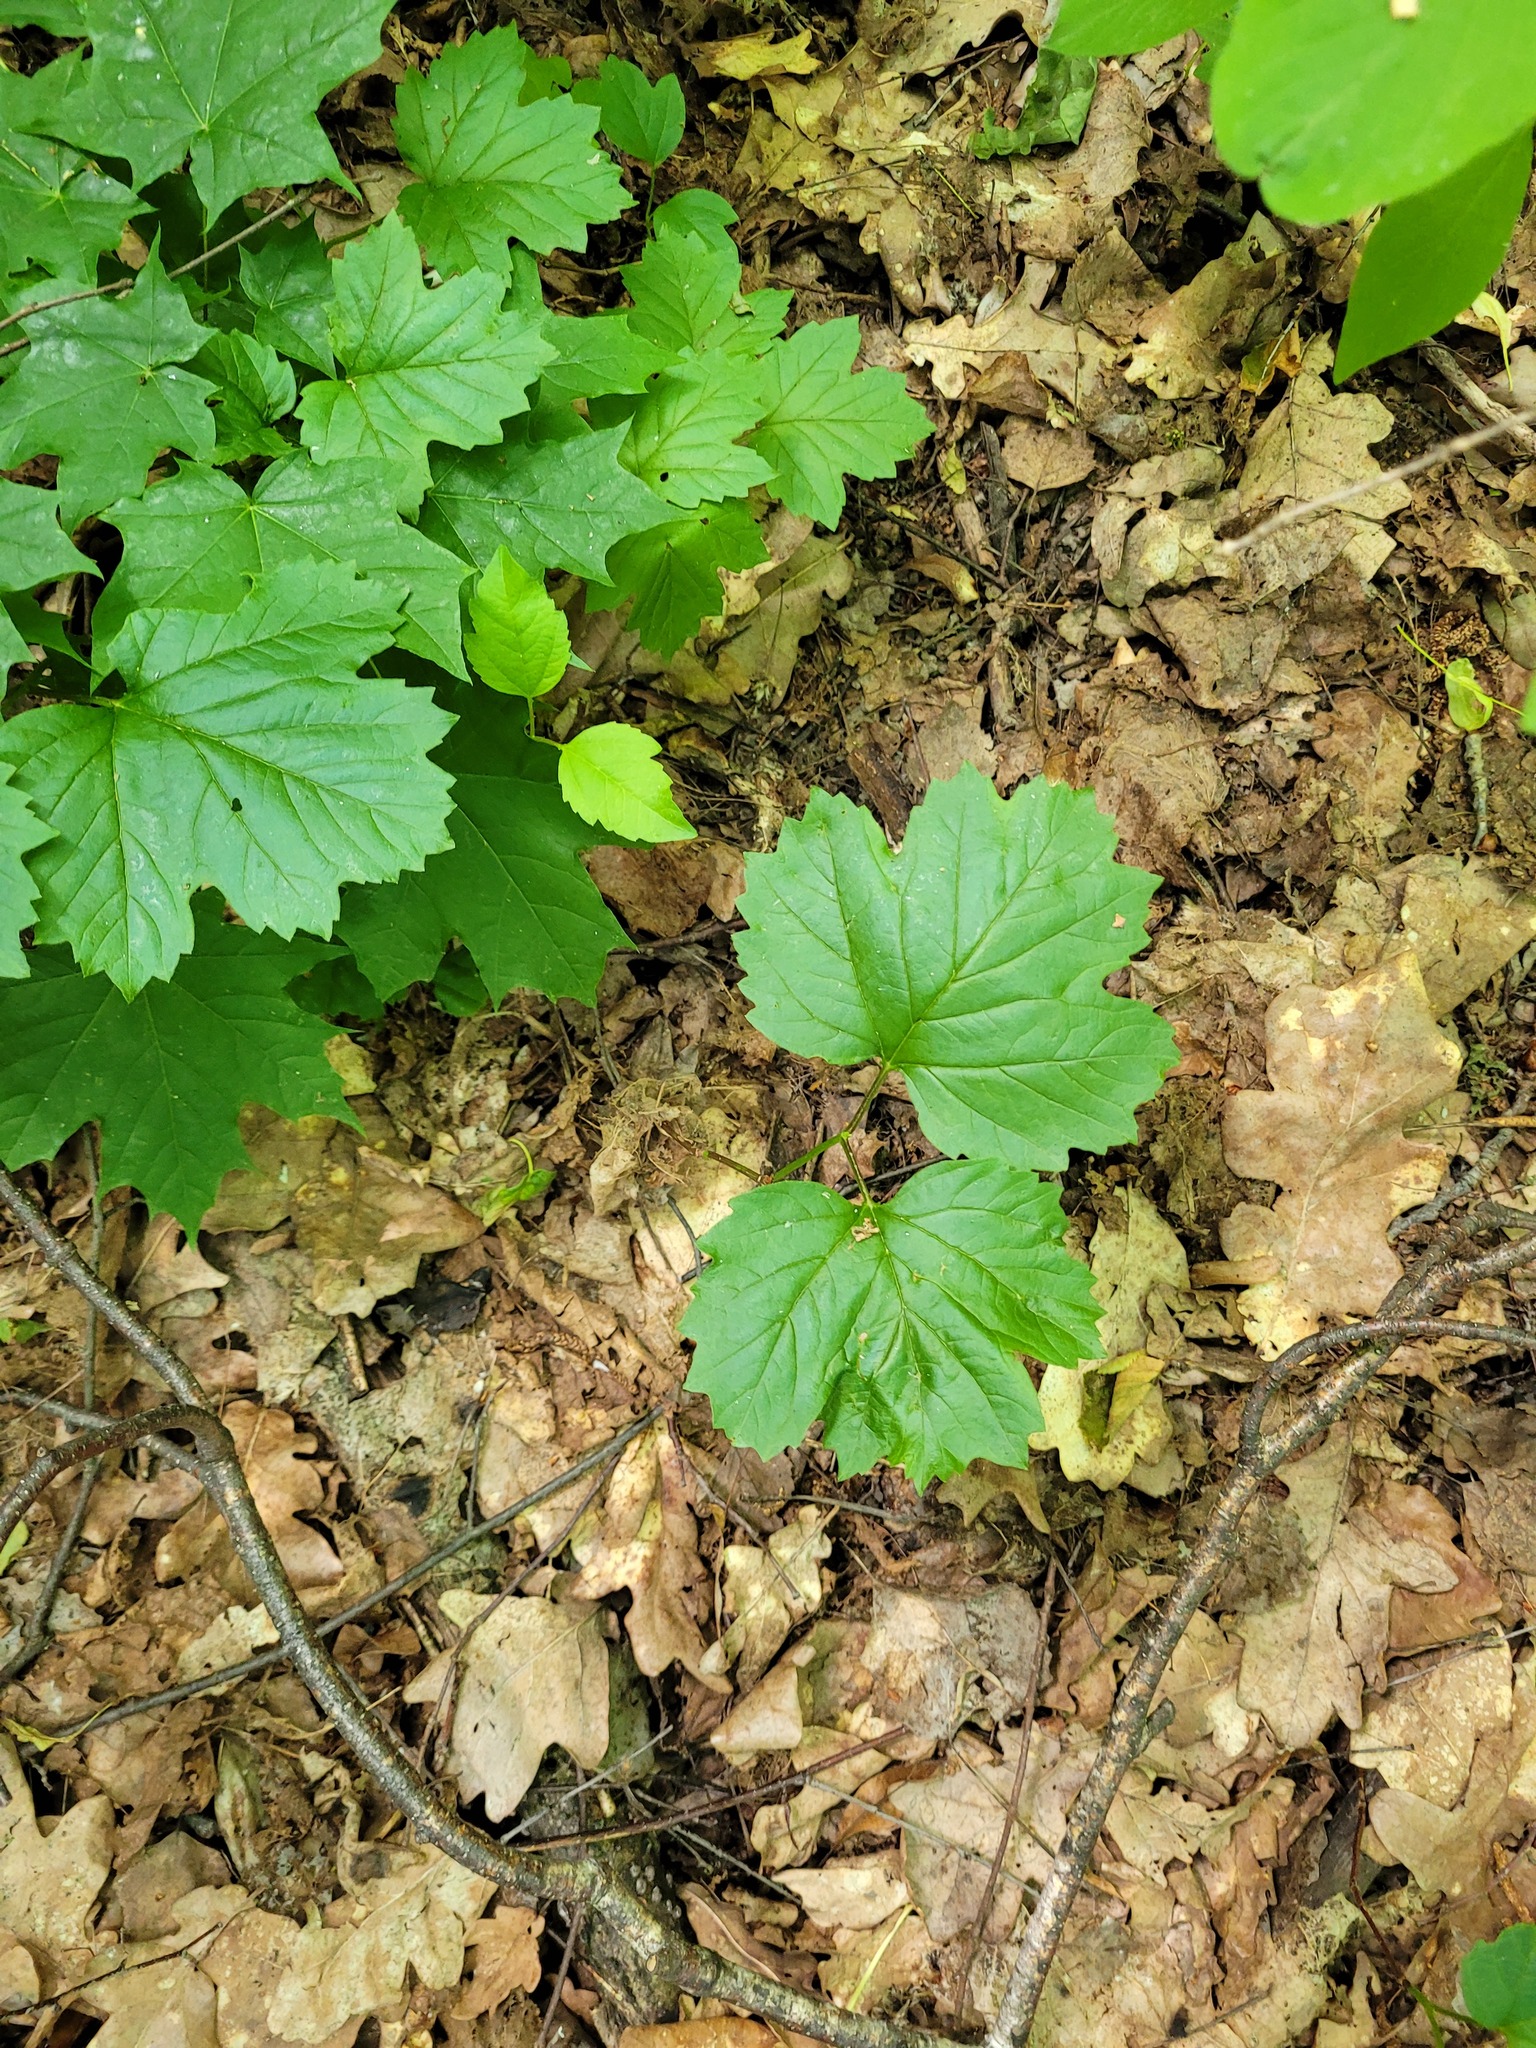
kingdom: Plantae
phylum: Tracheophyta
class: Magnoliopsida
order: Dipsacales
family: Viburnaceae
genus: Viburnum
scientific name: Viburnum opulus
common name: Guelder-rose
